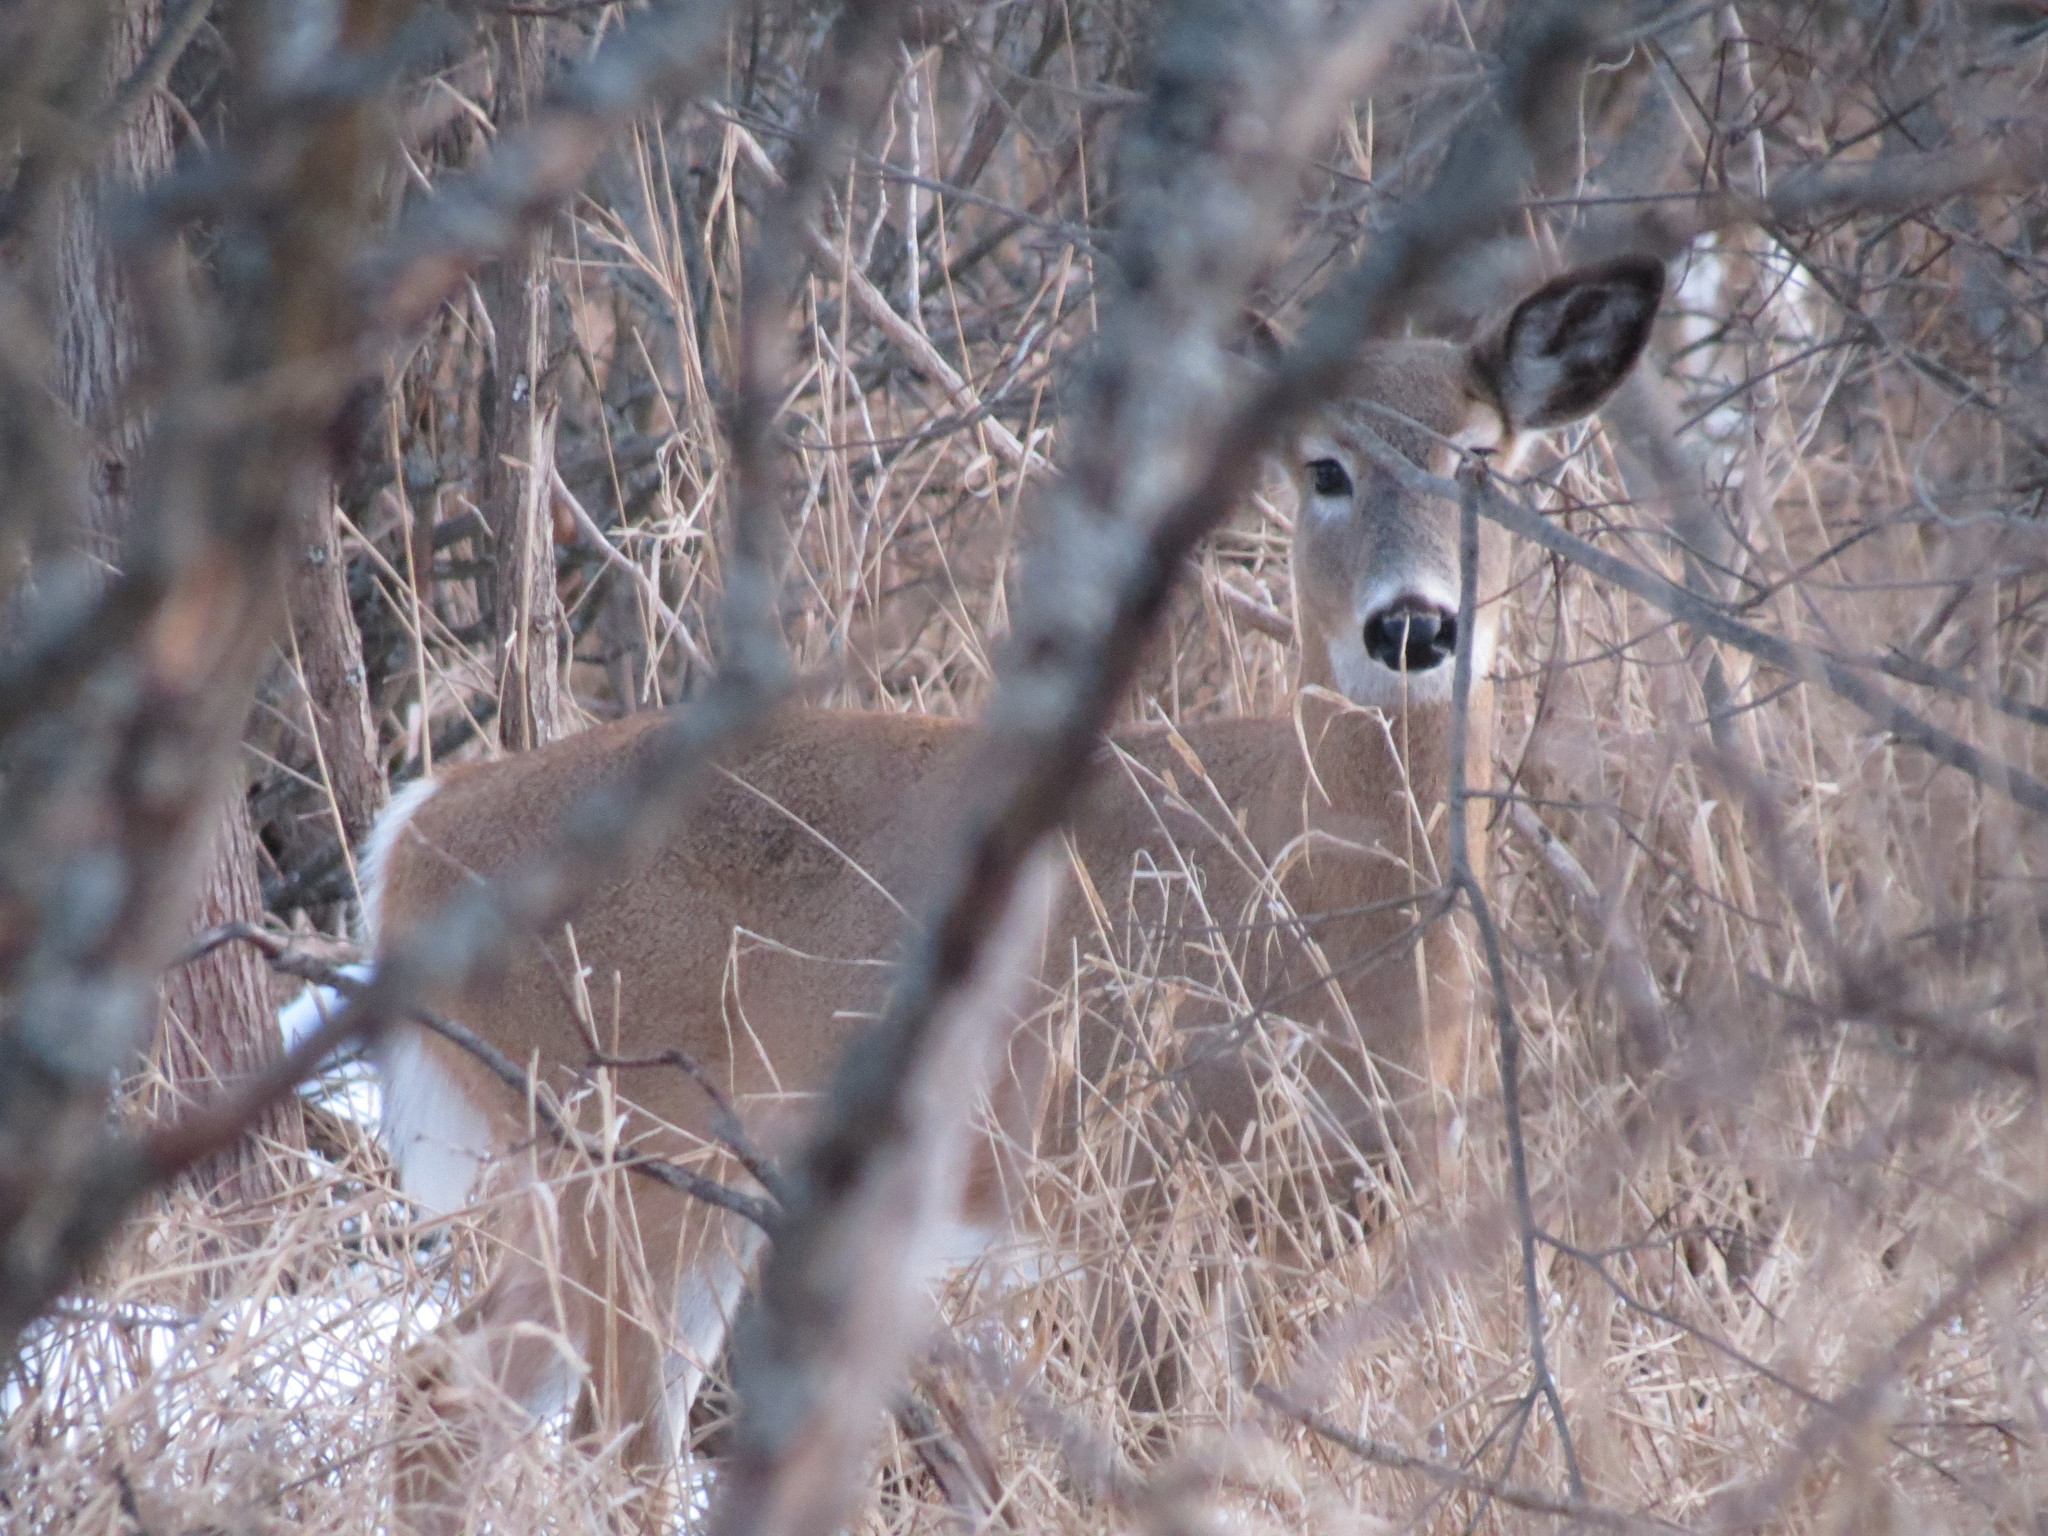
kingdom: Animalia
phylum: Chordata
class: Mammalia
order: Artiodactyla
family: Cervidae
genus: Odocoileus
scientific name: Odocoileus virginianus
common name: White-tailed deer
